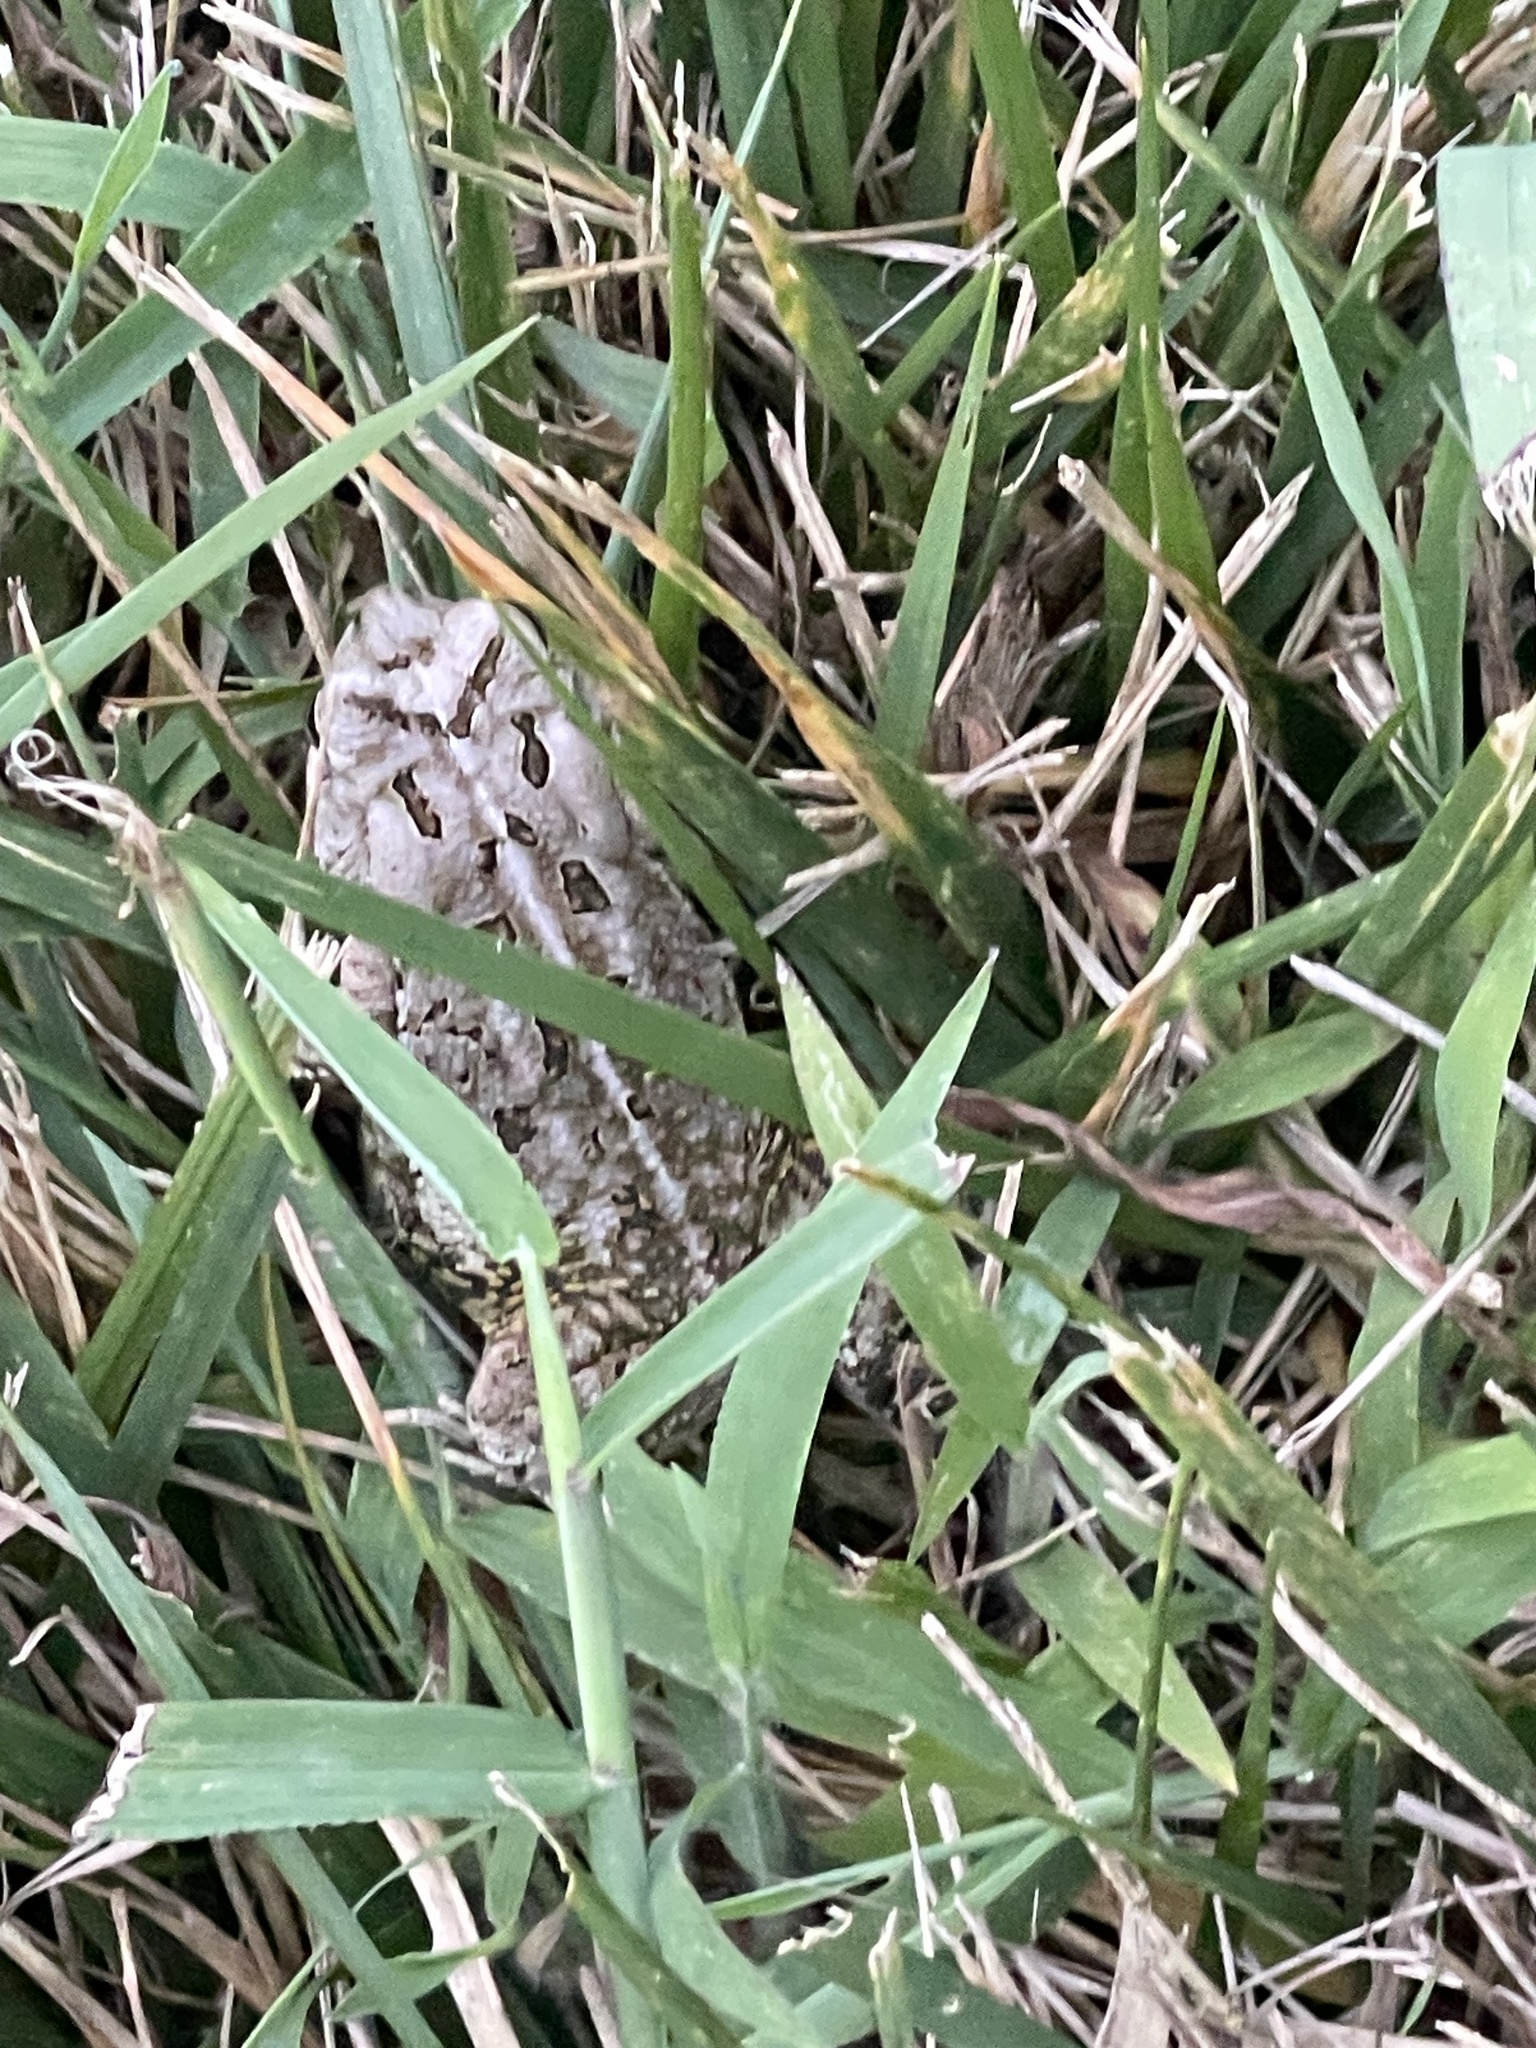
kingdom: Animalia
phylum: Chordata
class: Amphibia
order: Anura
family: Bufonidae
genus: Anaxyrus
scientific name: Anaxyrus fowleri
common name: Fowler's toad
